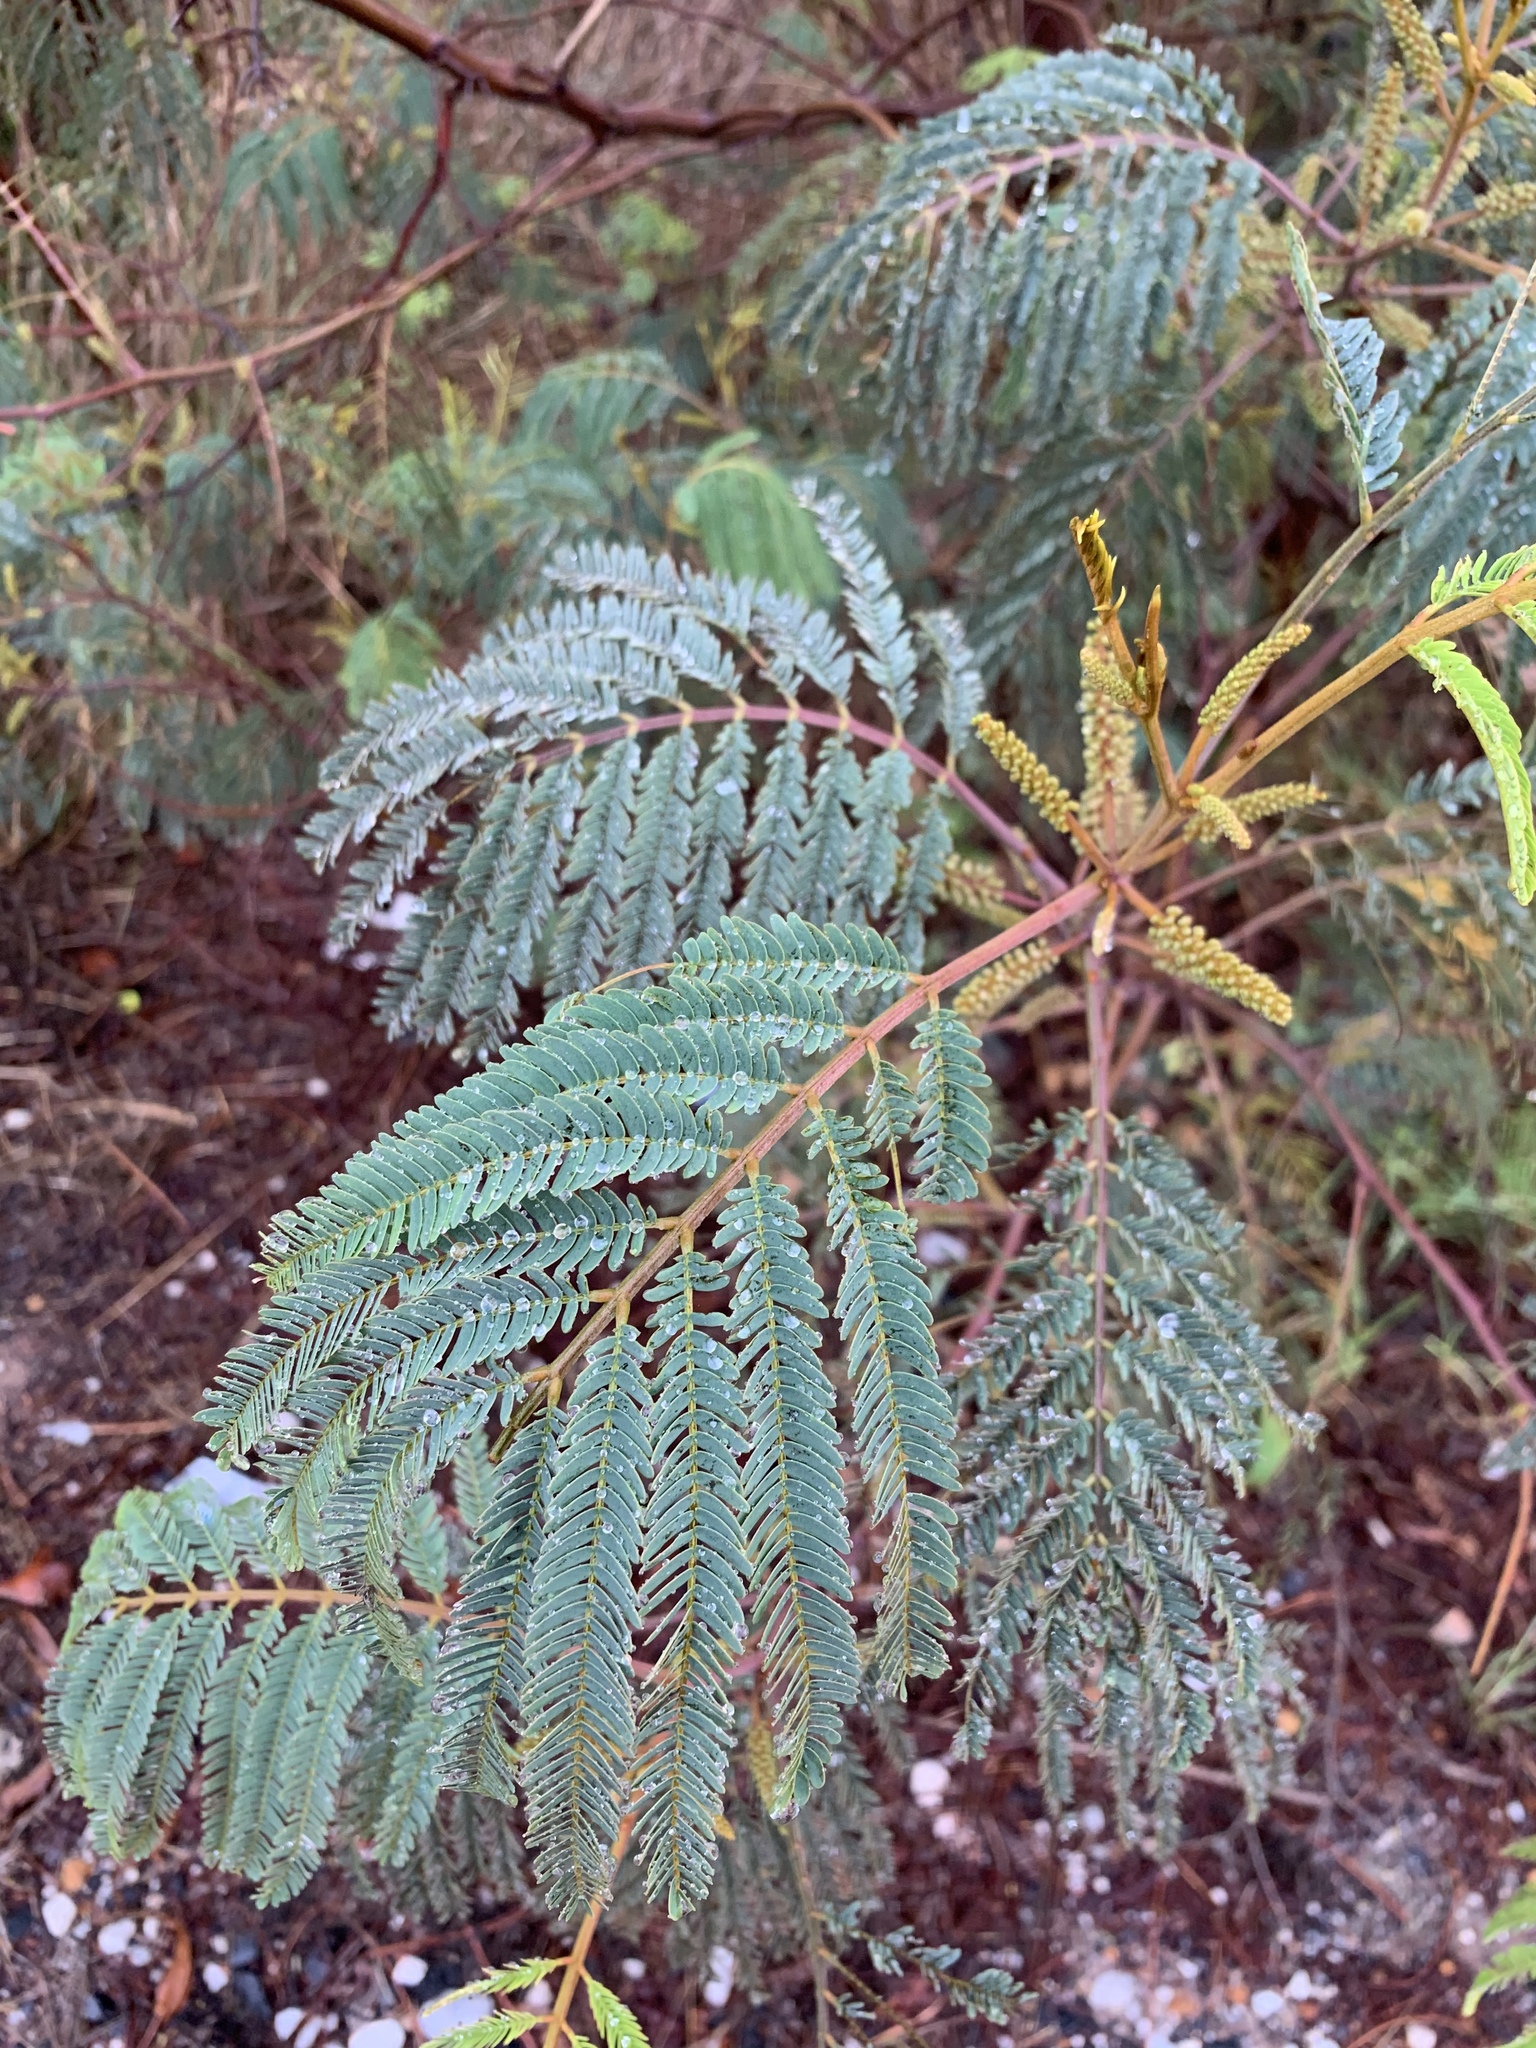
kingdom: Plantae
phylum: Tracheophyta
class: Magnoliopsida
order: Fabales
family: Fabaceae
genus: Paraserianthes
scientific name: Paraserianthes lophantha
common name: Plume albizia
